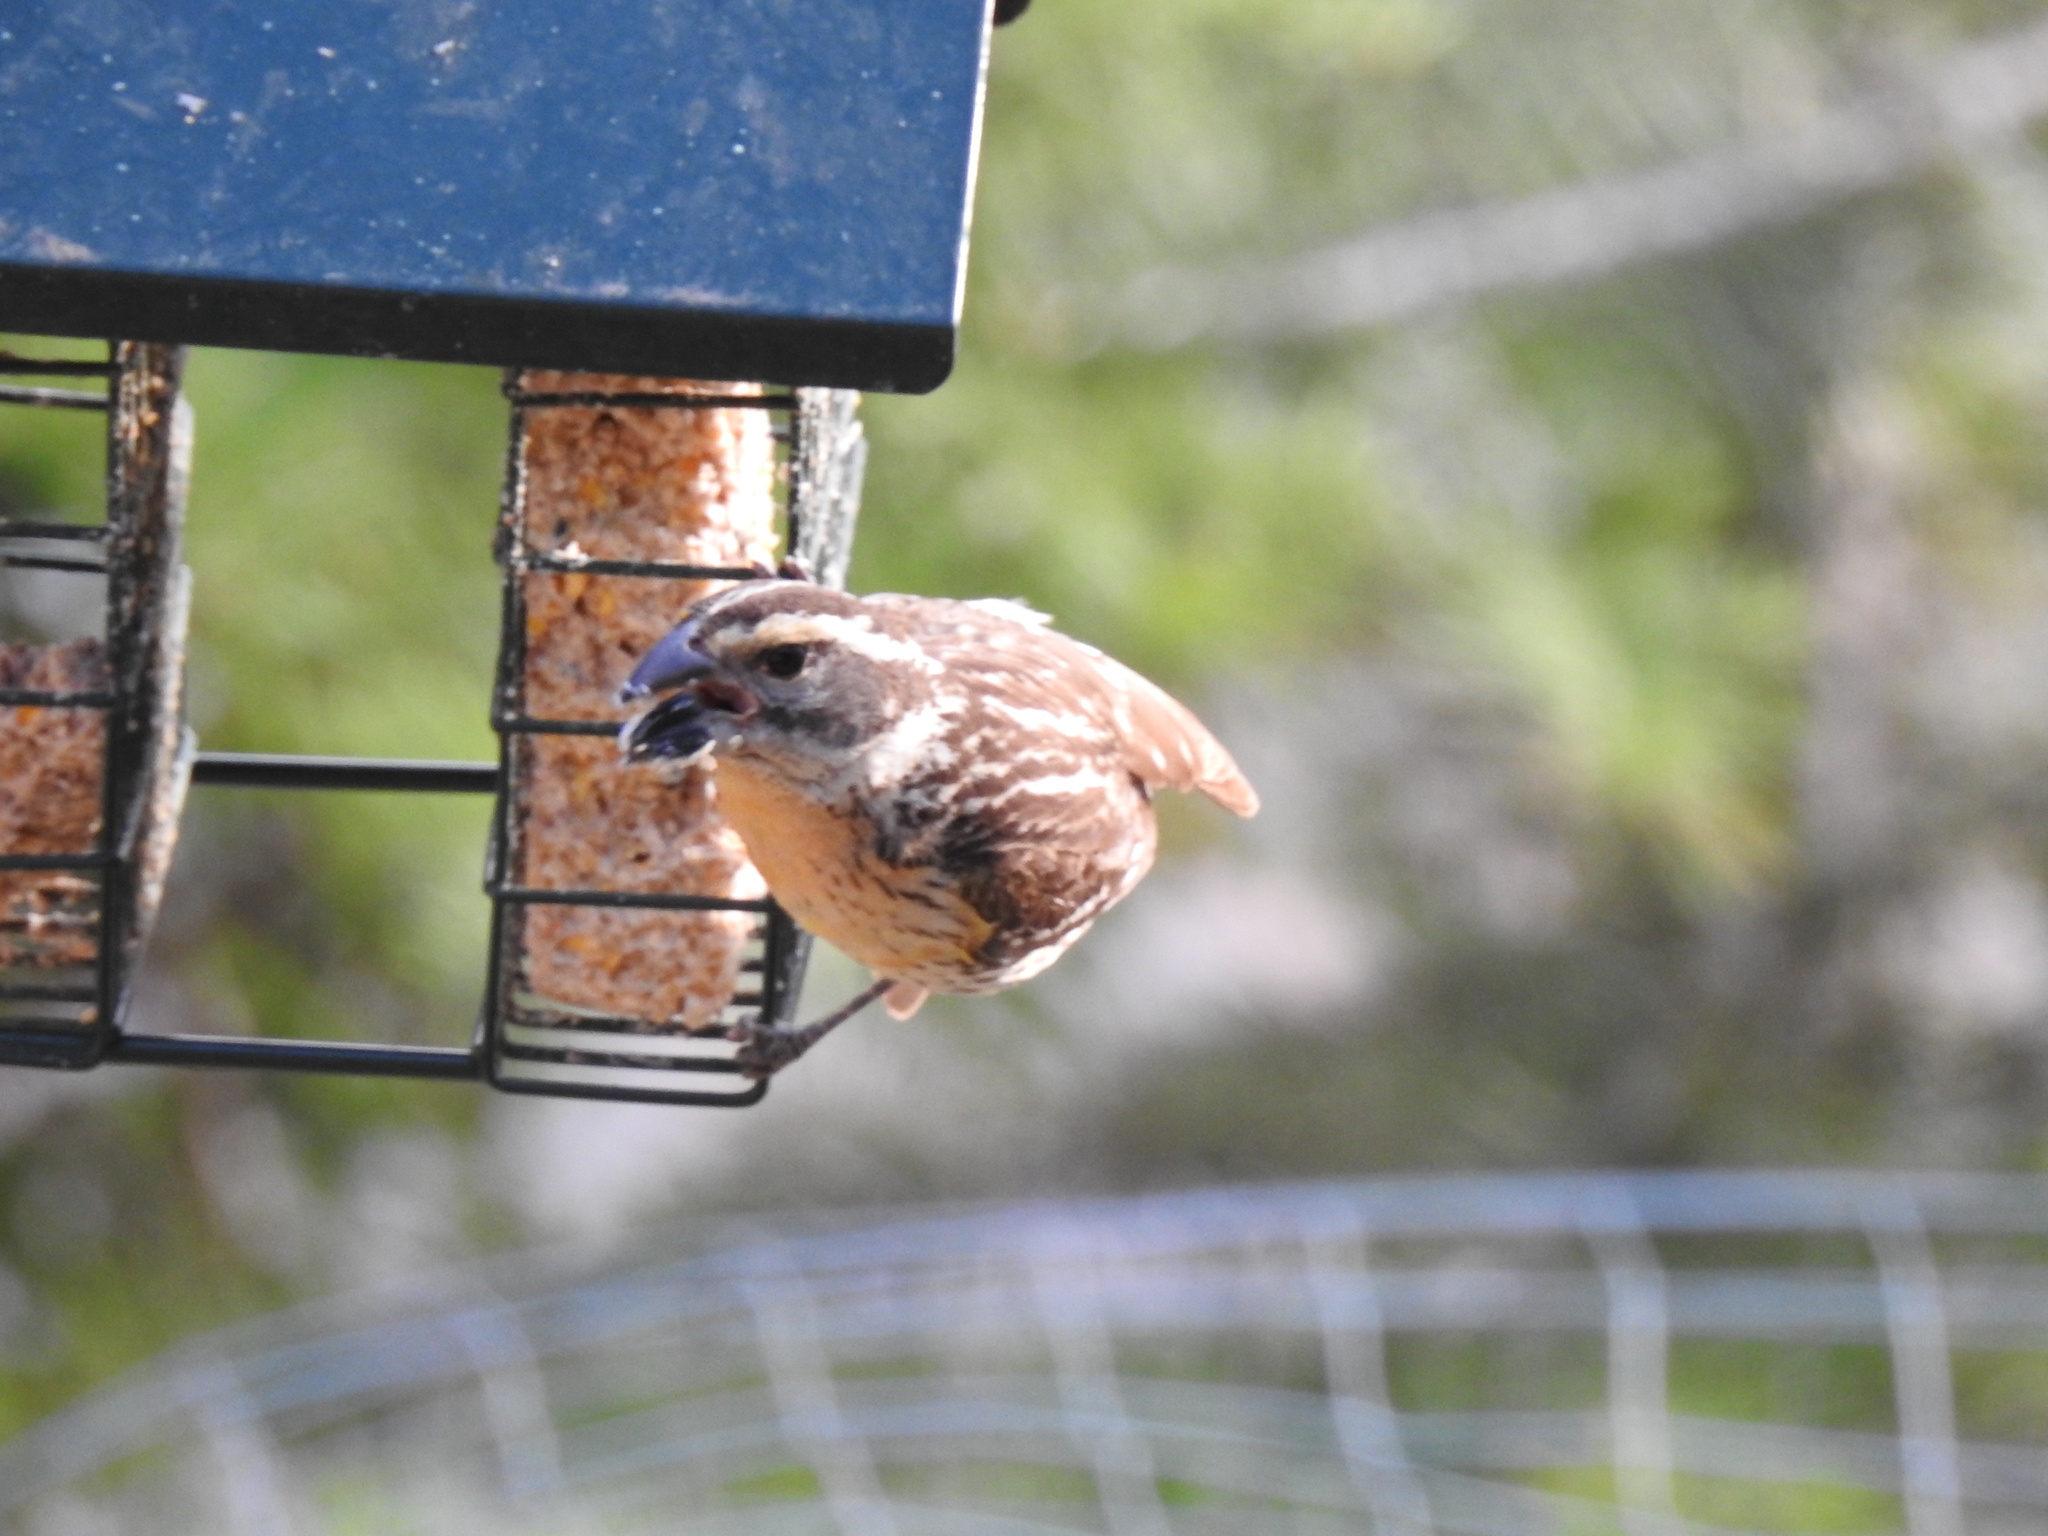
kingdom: Animalia
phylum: Chordata
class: Aves
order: Passeriformes
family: Cardinalidae
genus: Pheucticus
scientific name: Pheucticus melanocephalus
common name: Black-headed grosbeak
